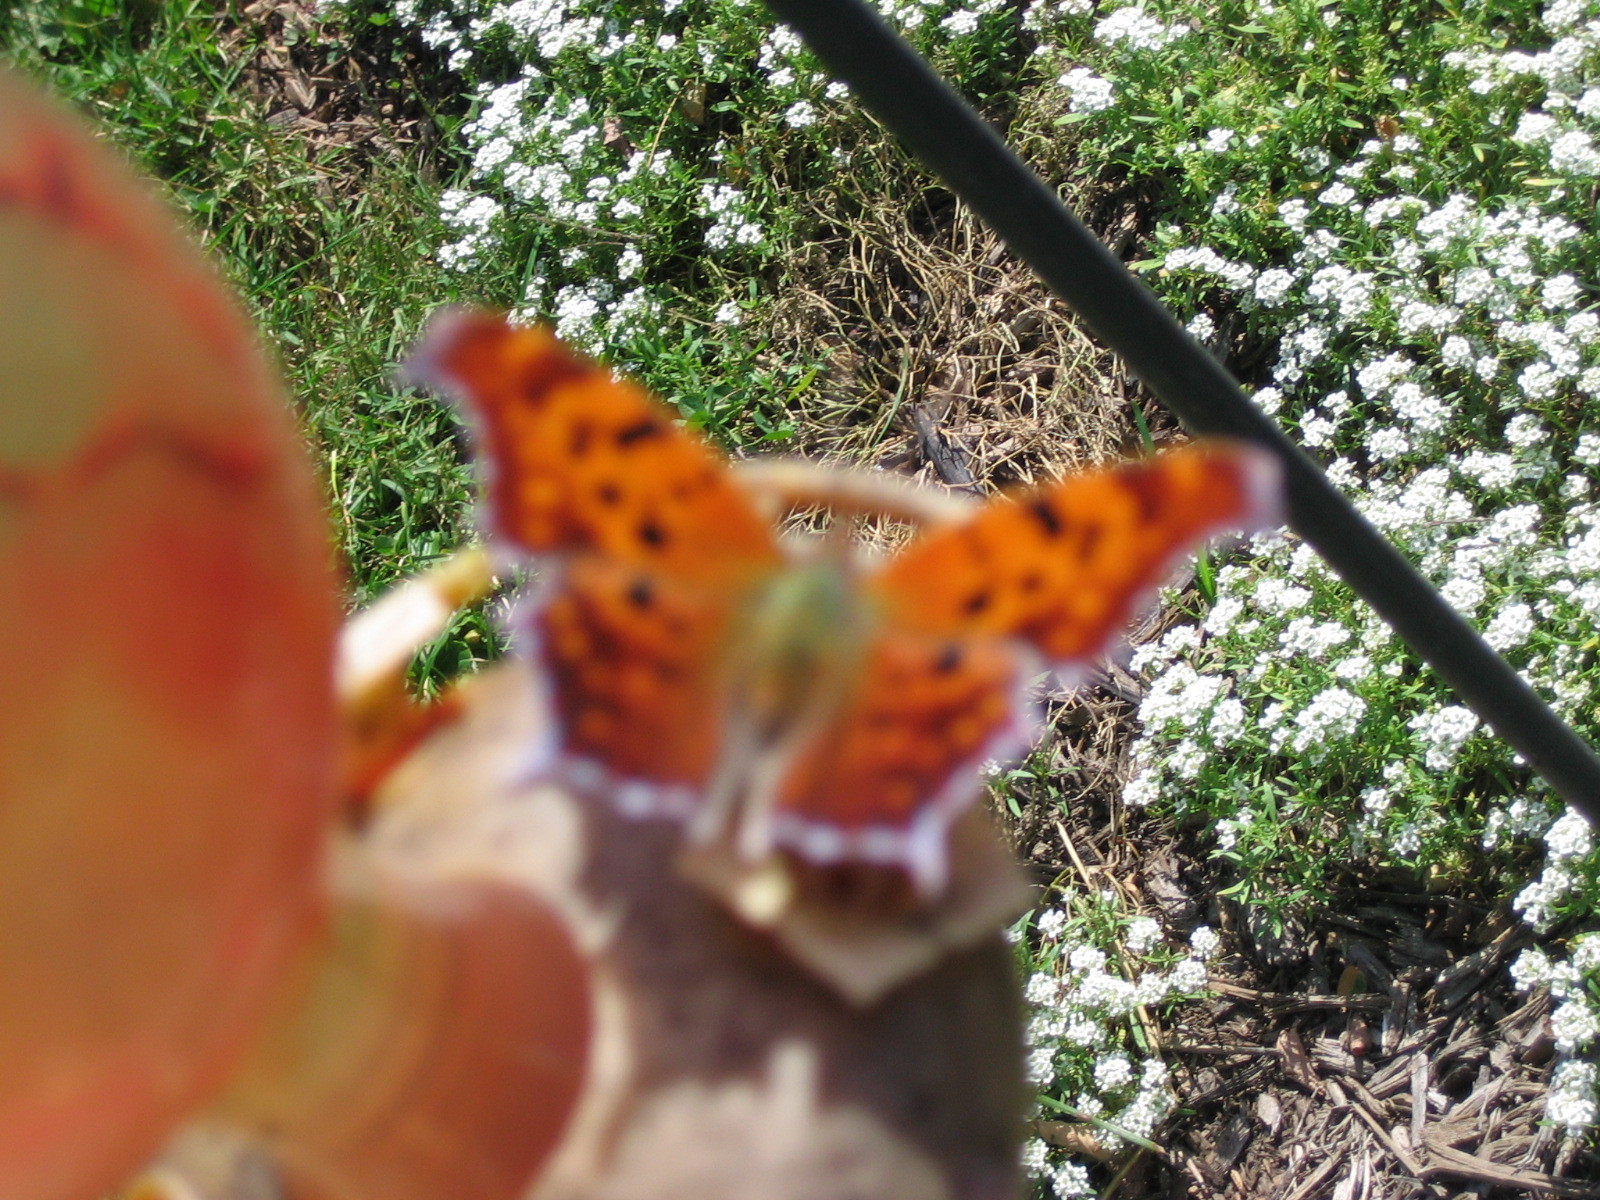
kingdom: Animalia
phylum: Arthropoda
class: Insecta
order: Lepidoptera
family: Nymphalidae
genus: Polygonia
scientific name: Polygonia interrogationis
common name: Question mark
